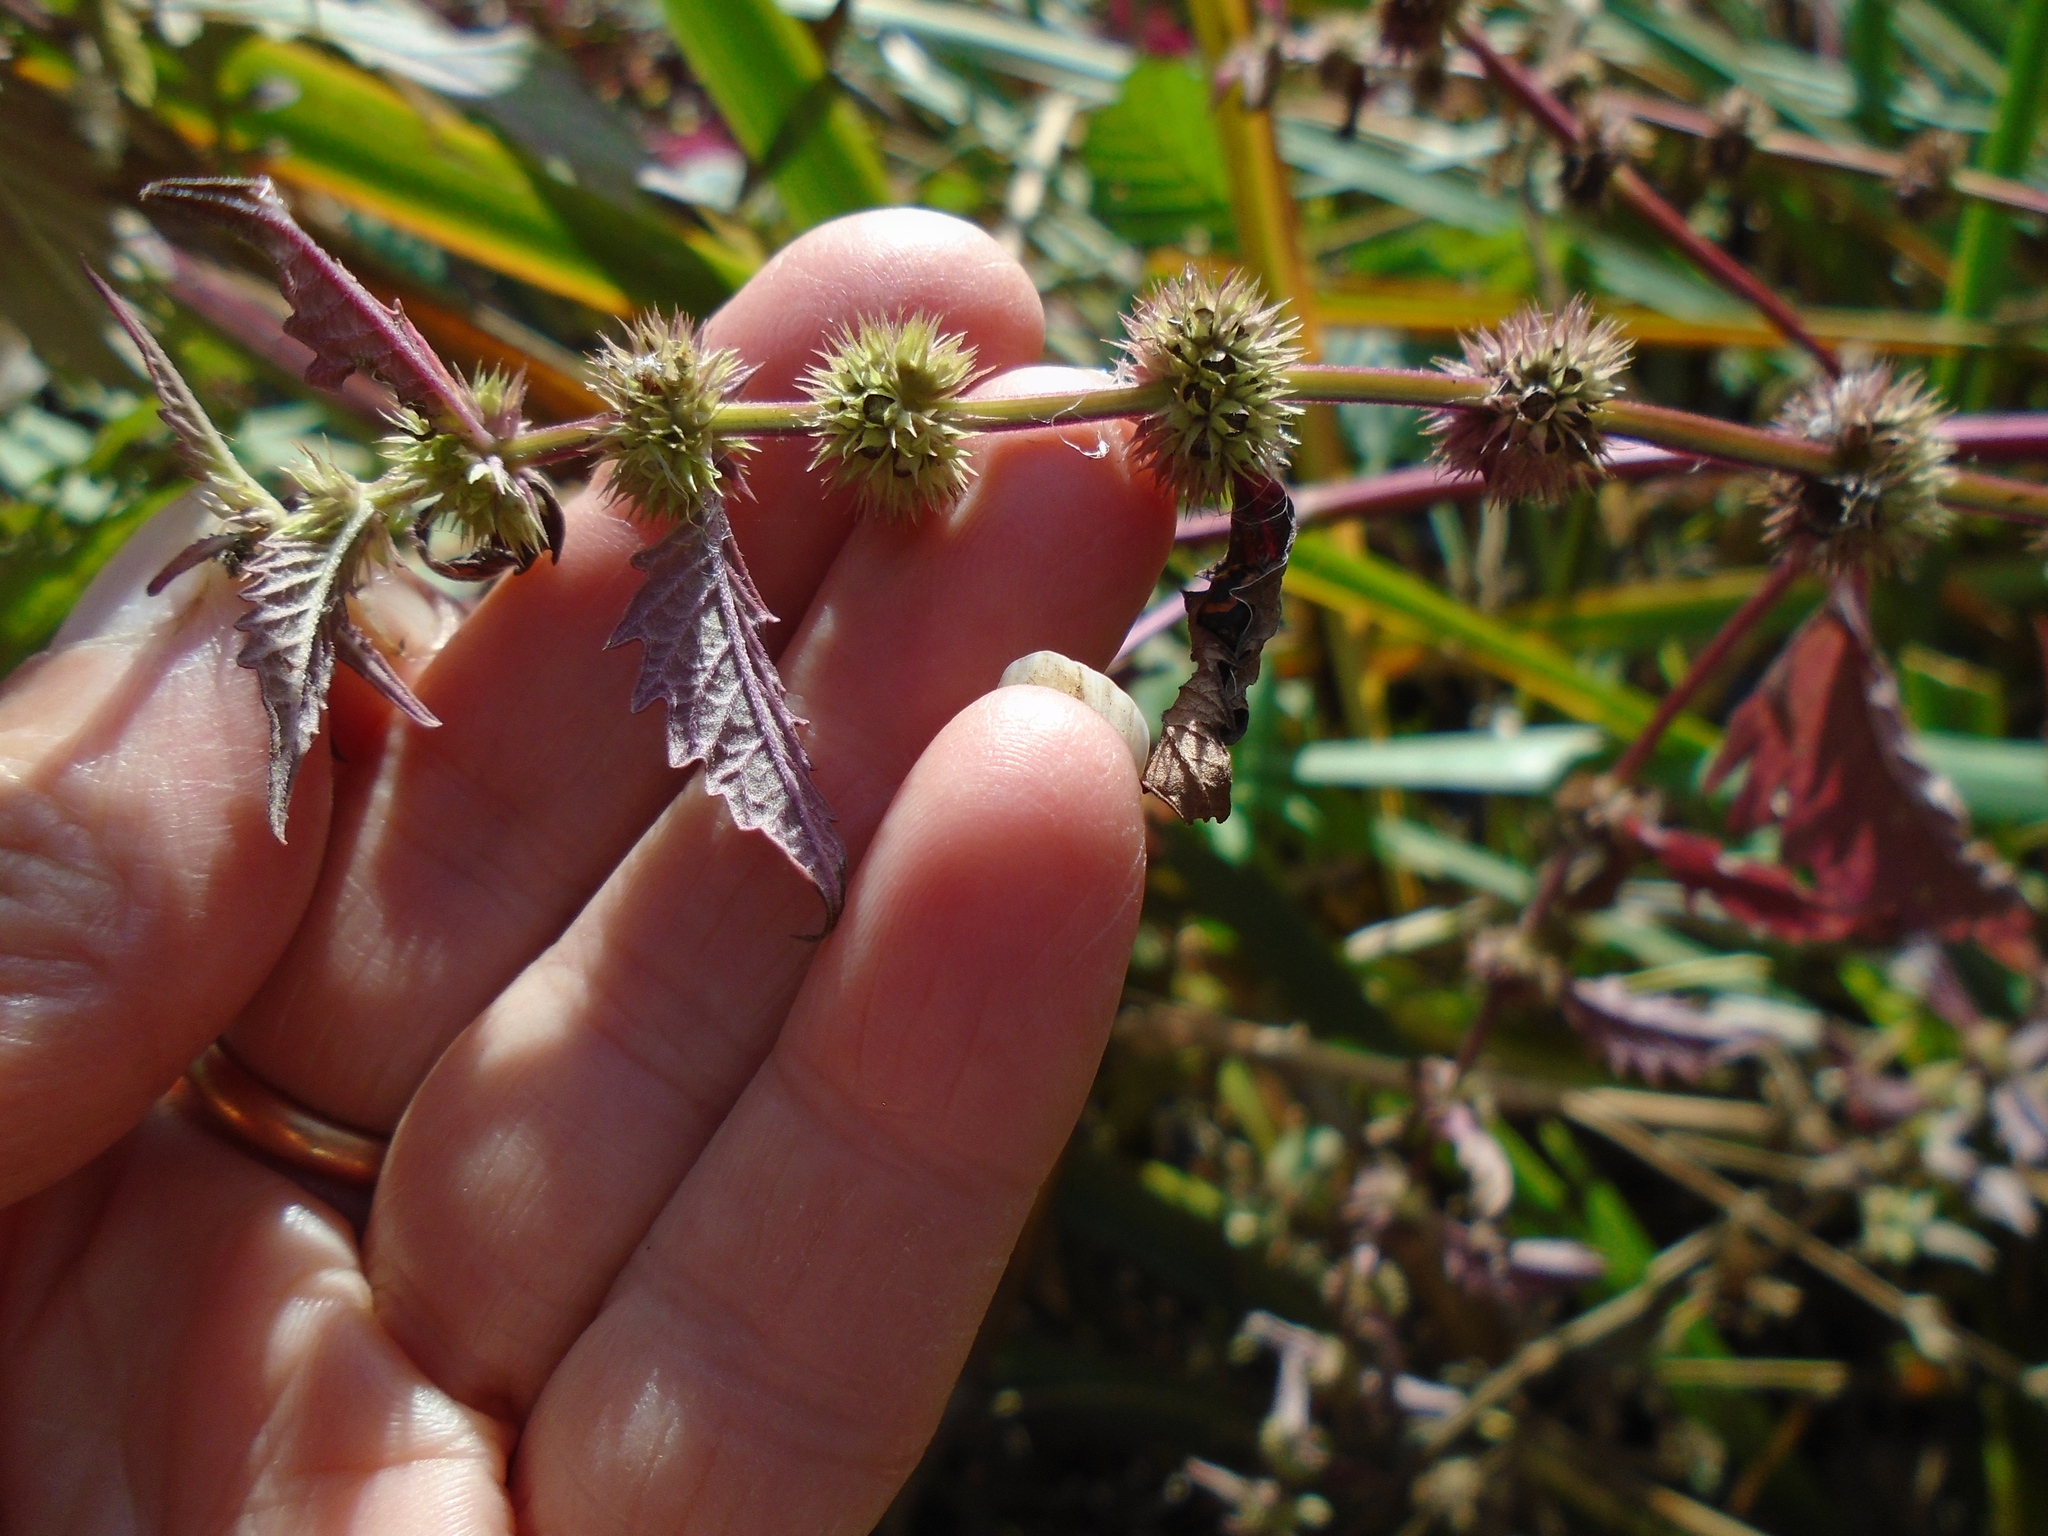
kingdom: Plantae
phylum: Tracheophyta
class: Magnoliopsida
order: Lamiales
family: Lamiaceae
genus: Lycopus
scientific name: Lycopus europaeus
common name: European bugleweed
